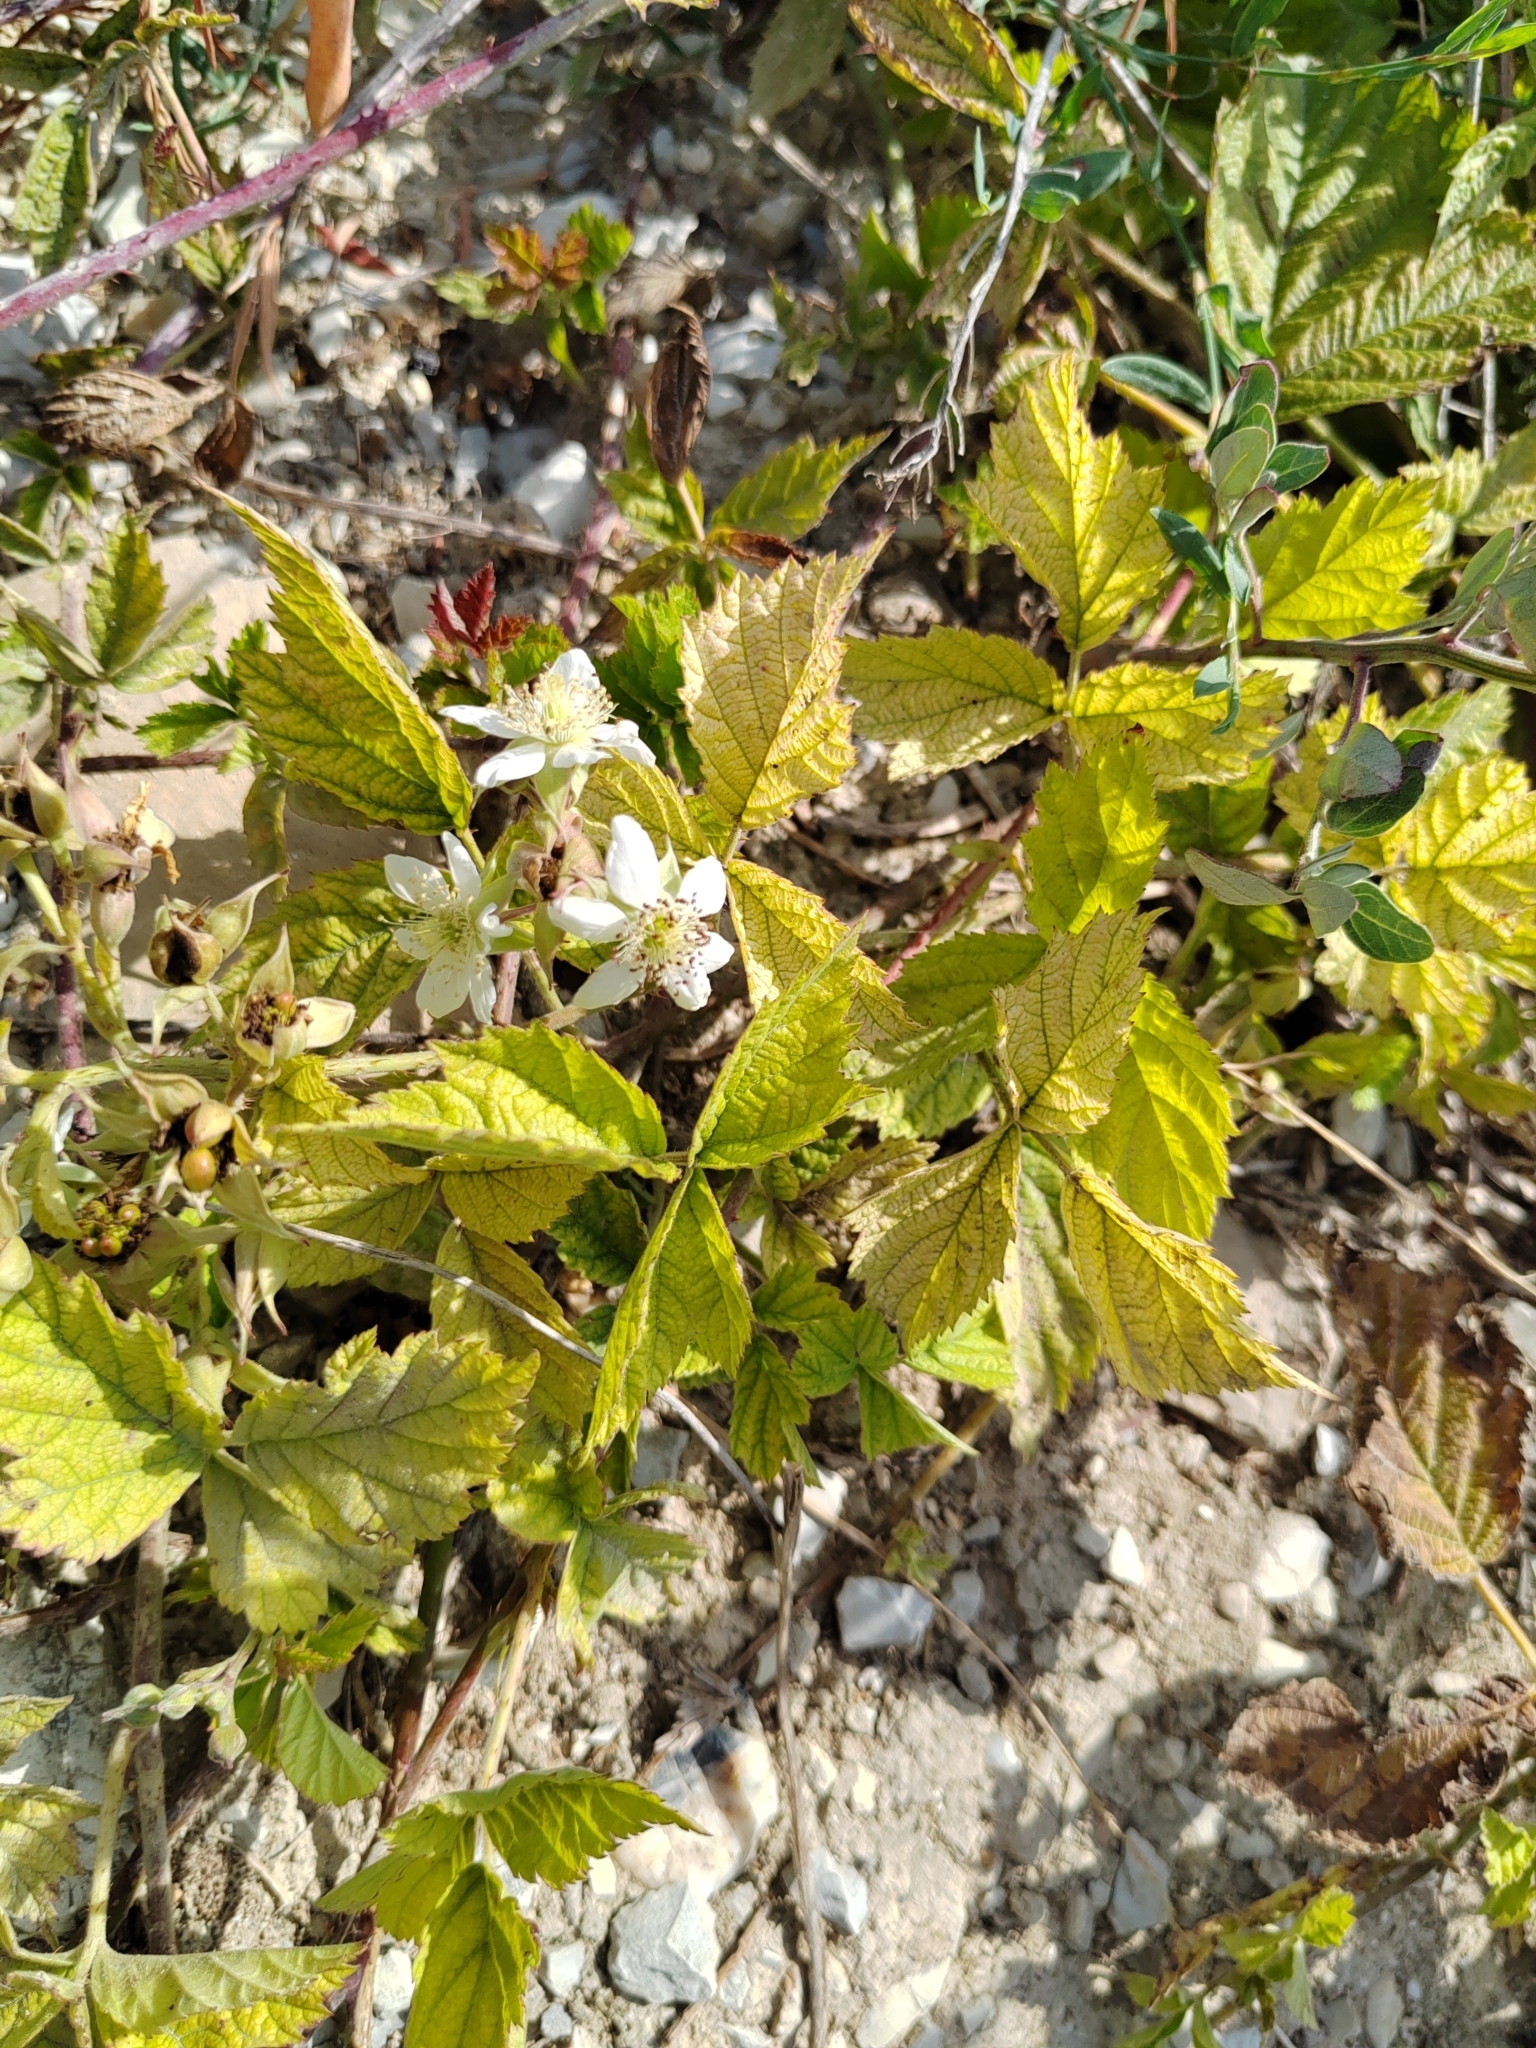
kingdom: Plantae
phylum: Tracheophyta
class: Magnoliopsida
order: Rosales
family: Rosaceae
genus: Rubus
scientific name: Rubus caesius
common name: Dewberry
